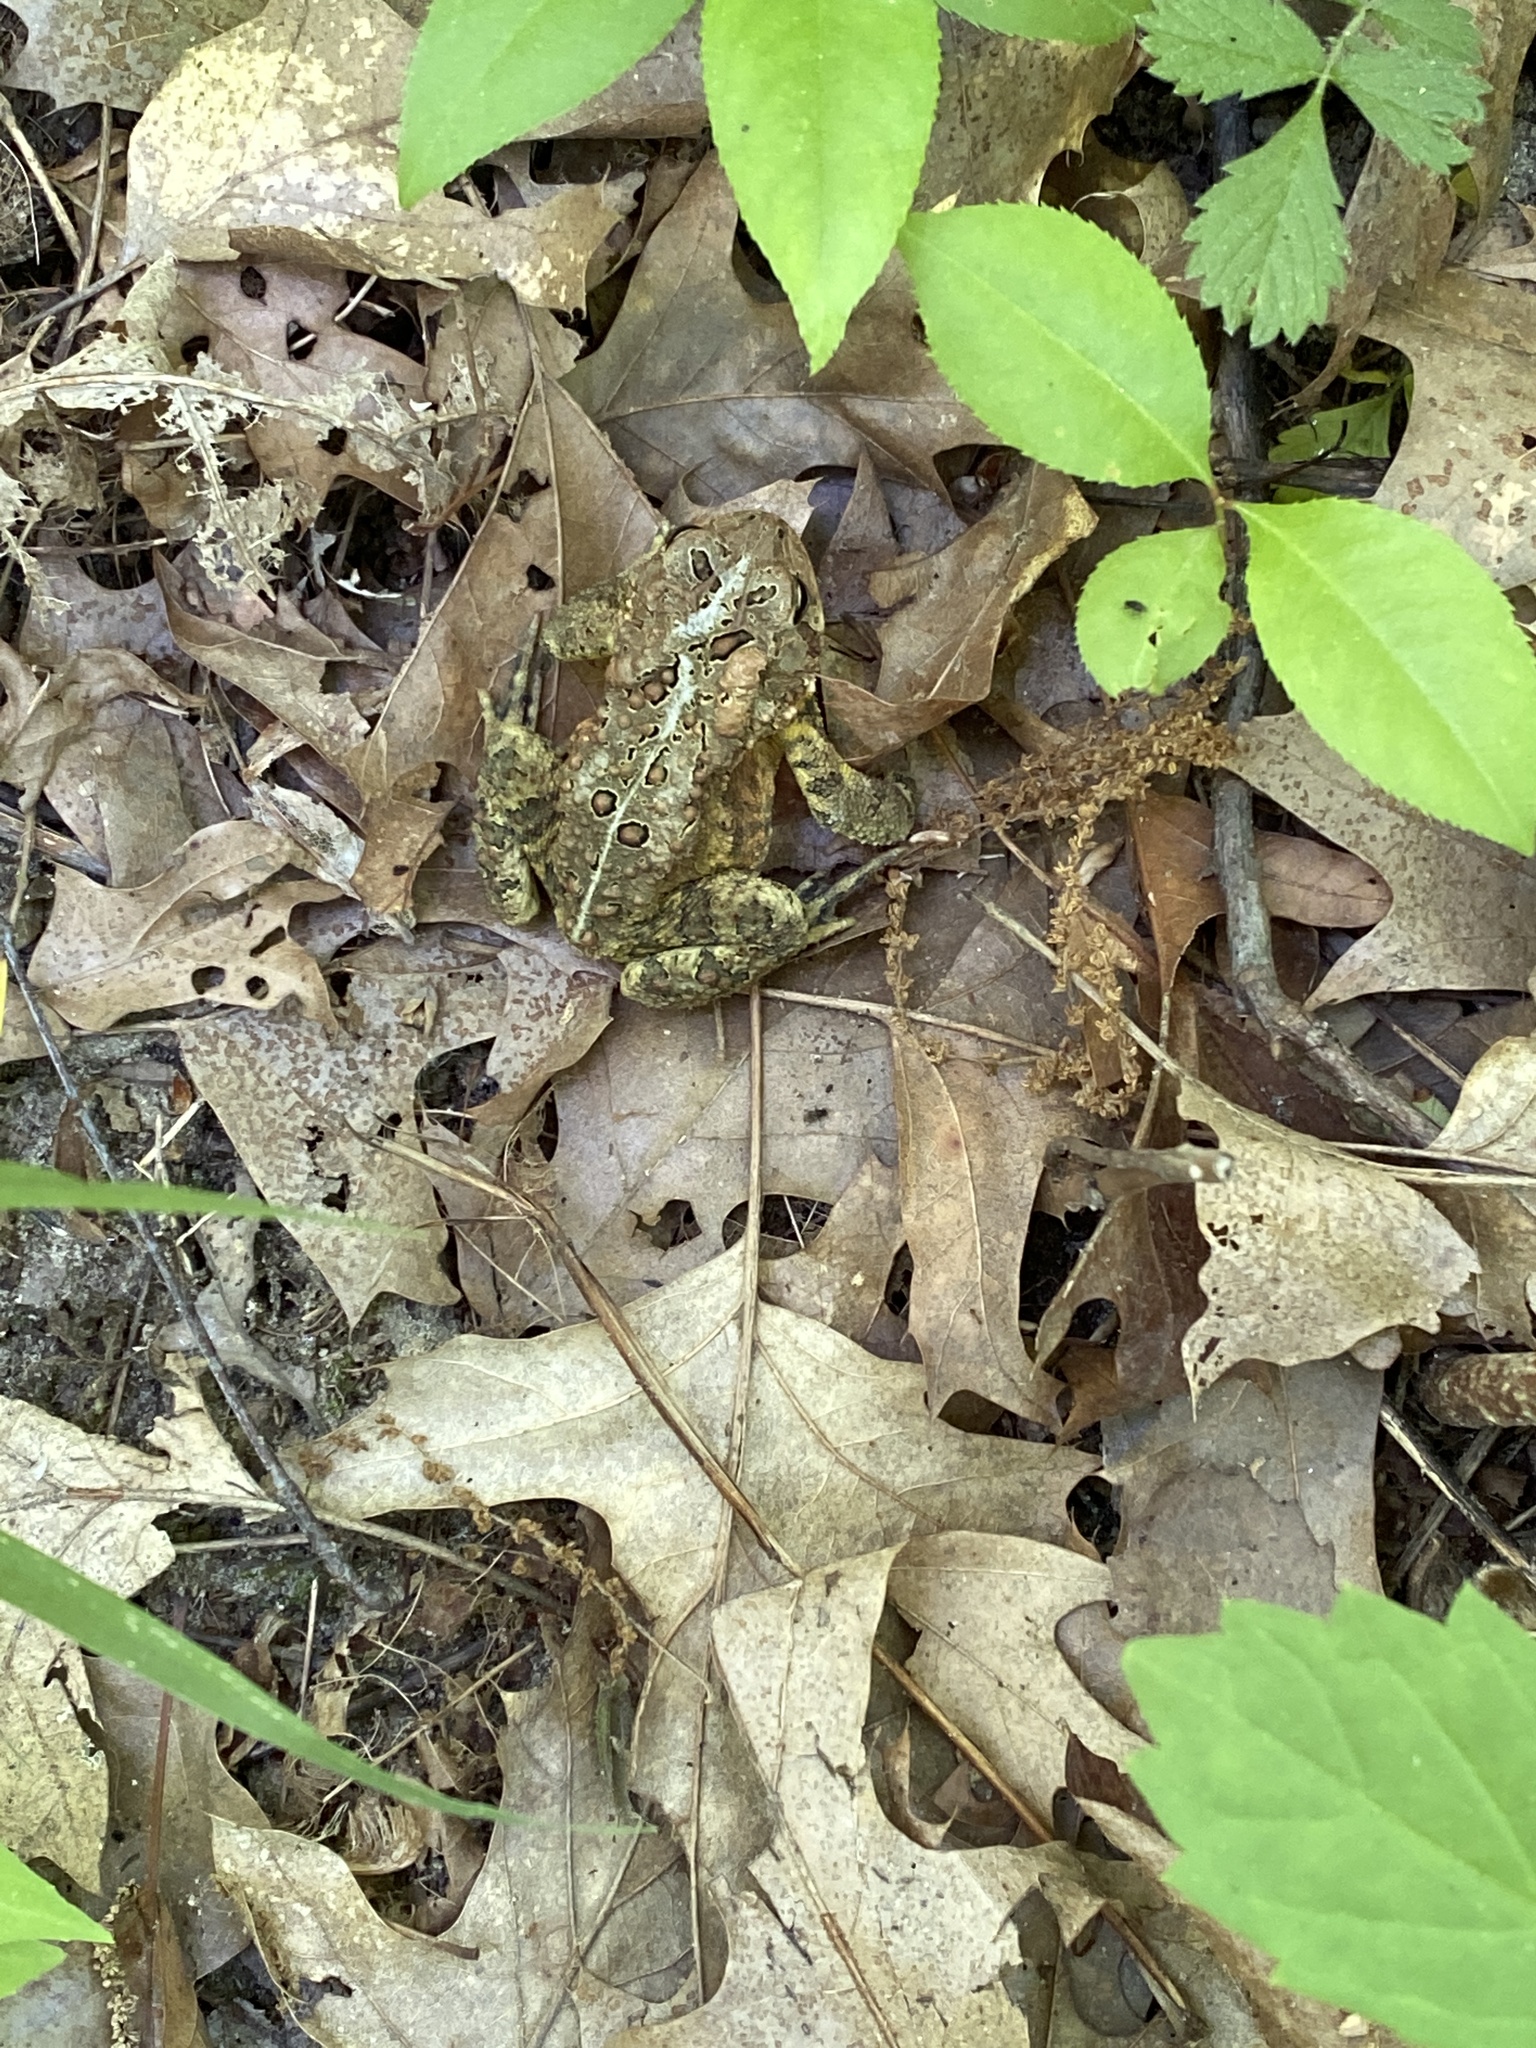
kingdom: Animalia
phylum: Chordata
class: Amphibia
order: Anura
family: Bufonidae
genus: Anaxyrus
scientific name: Anaxyrus americanus
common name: American toad
